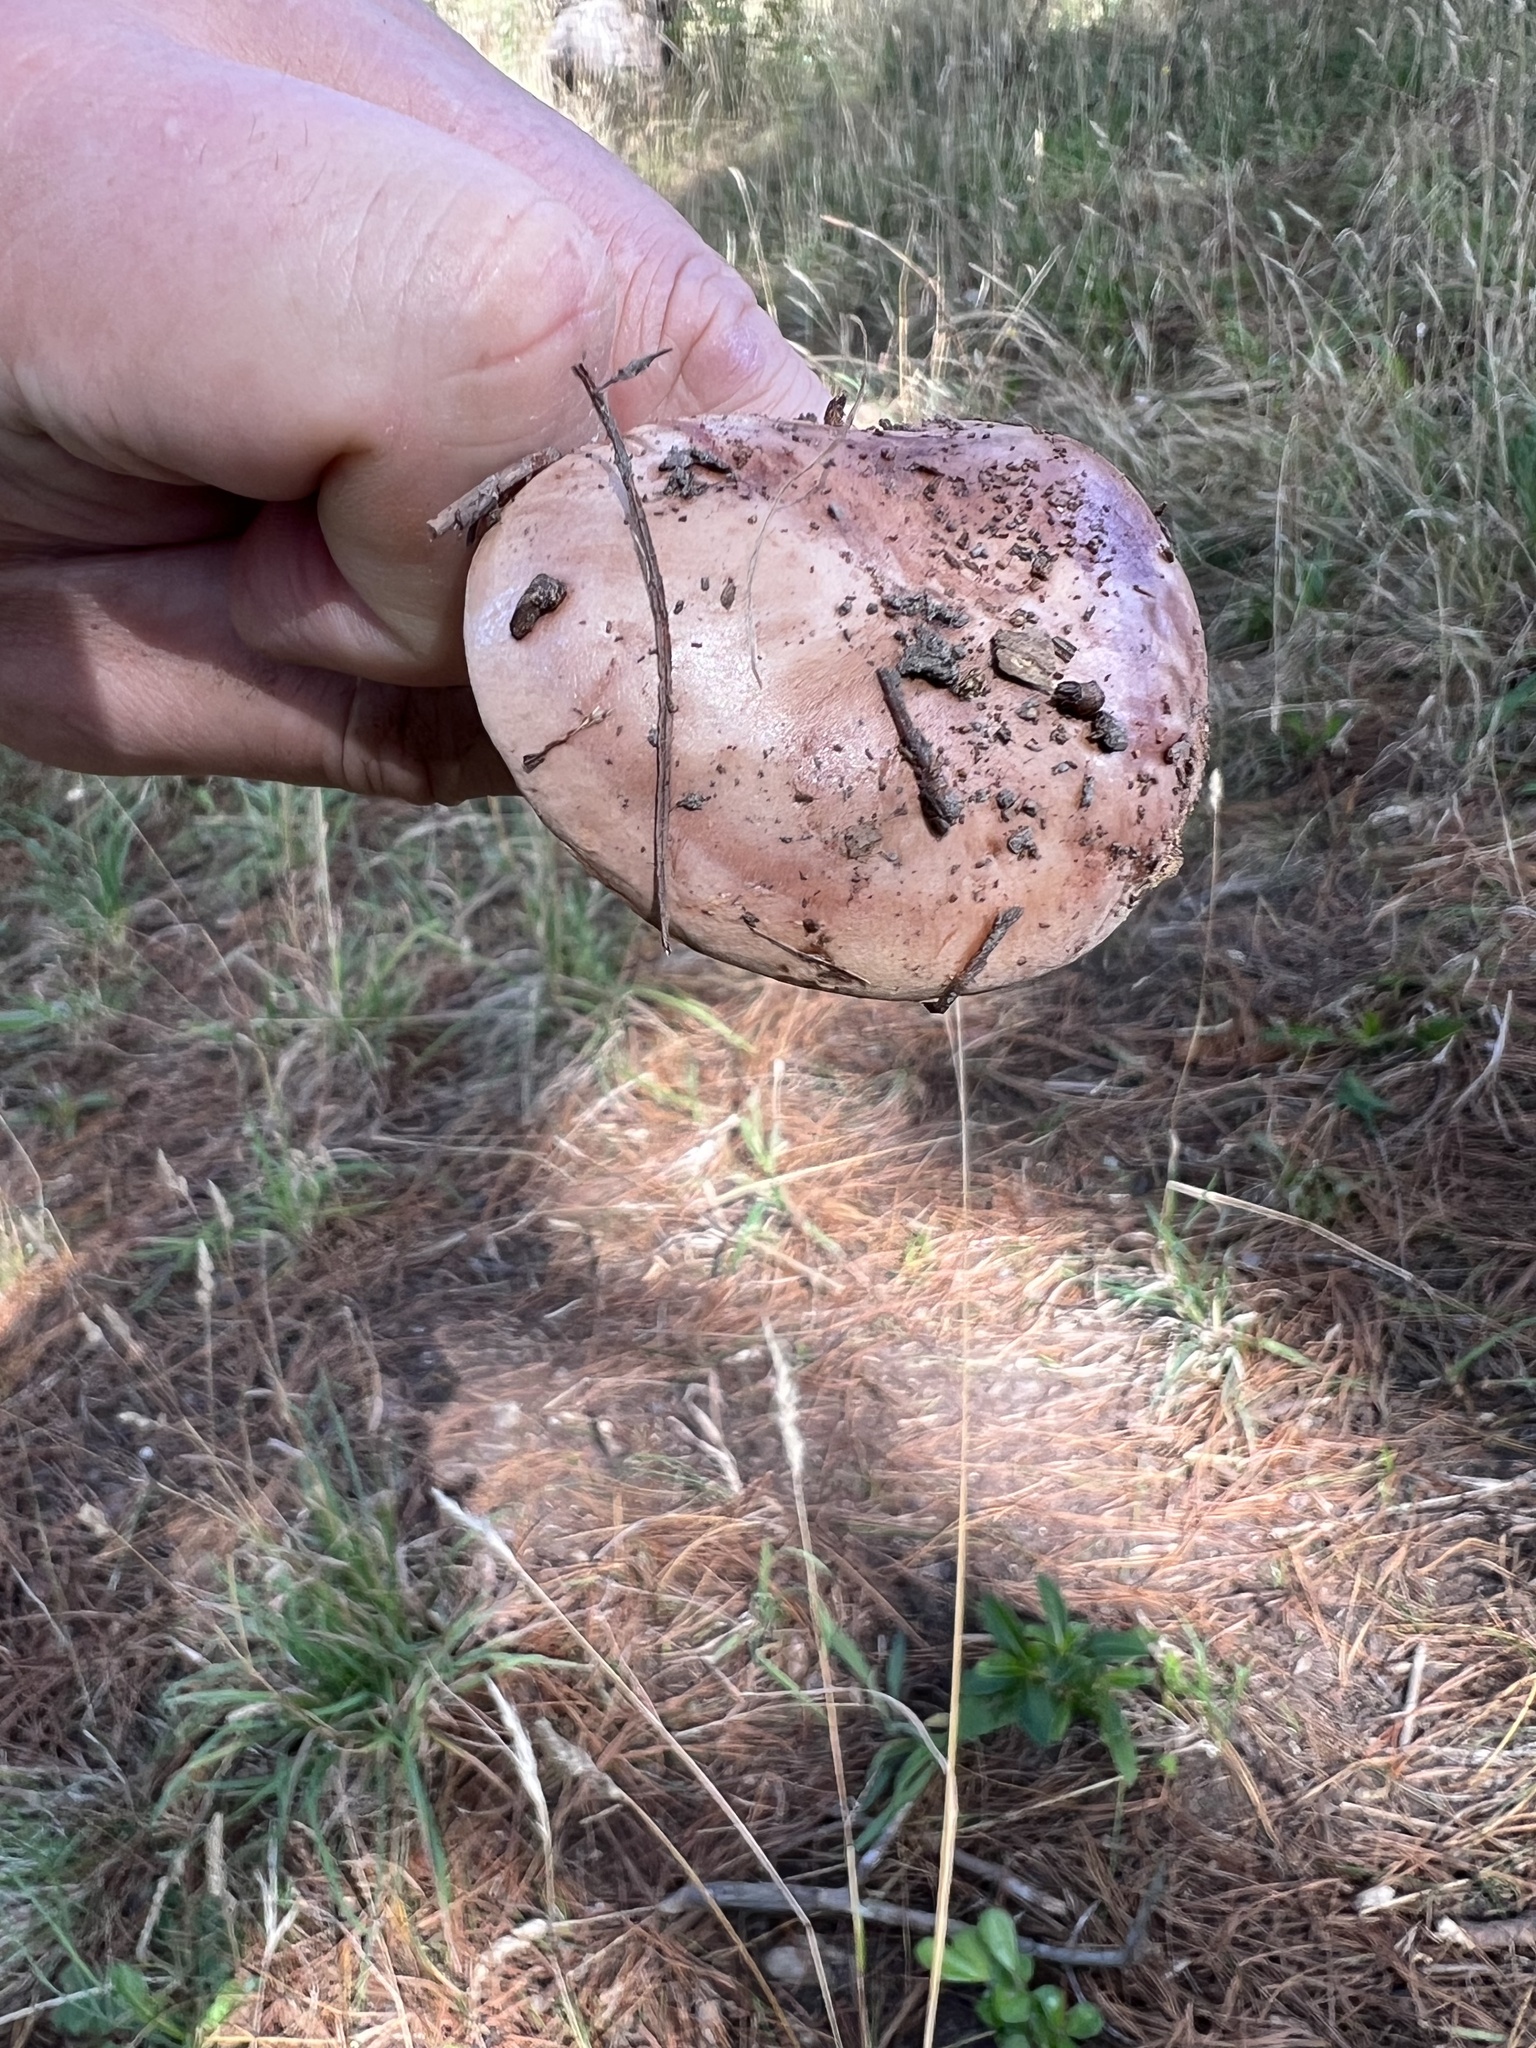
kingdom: Fungi
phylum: Basidiomycota
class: Agaricomycetes
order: Agaricales
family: Tricholomataceae
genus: Tricholoma
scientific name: Tricholoma batschii
